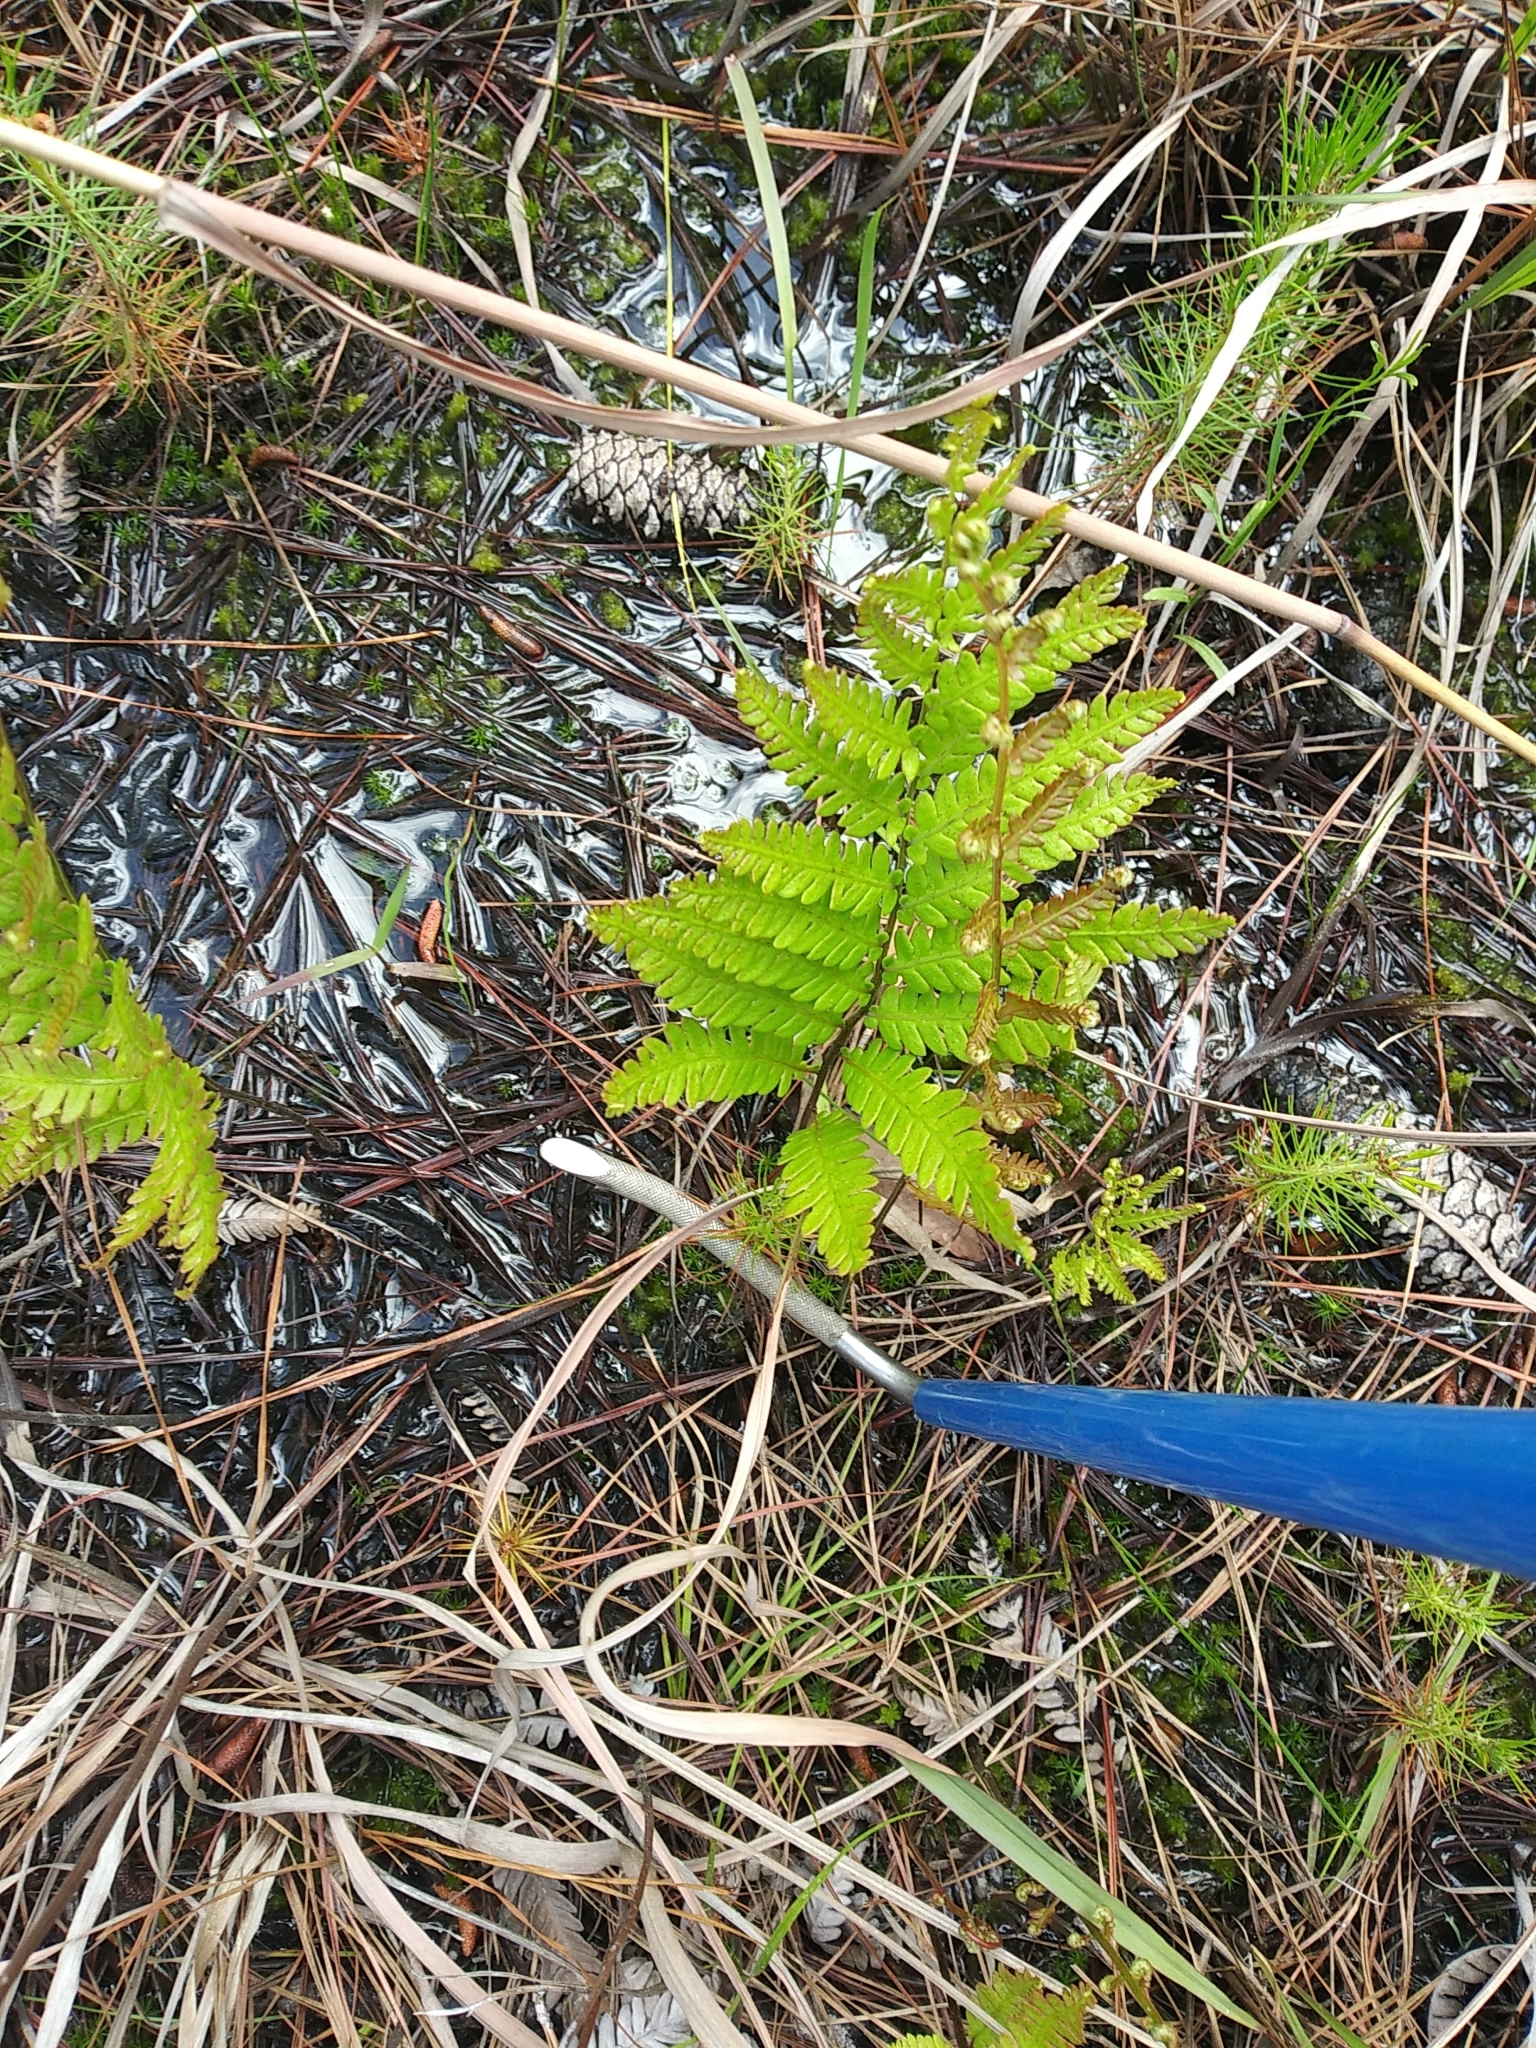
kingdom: Plantae
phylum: Tracheophyta
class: Polypodiopsida
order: Polypodiales
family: Blechnaceae
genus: Anchistea
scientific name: Anchistea virginica
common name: Virginia chain fern
